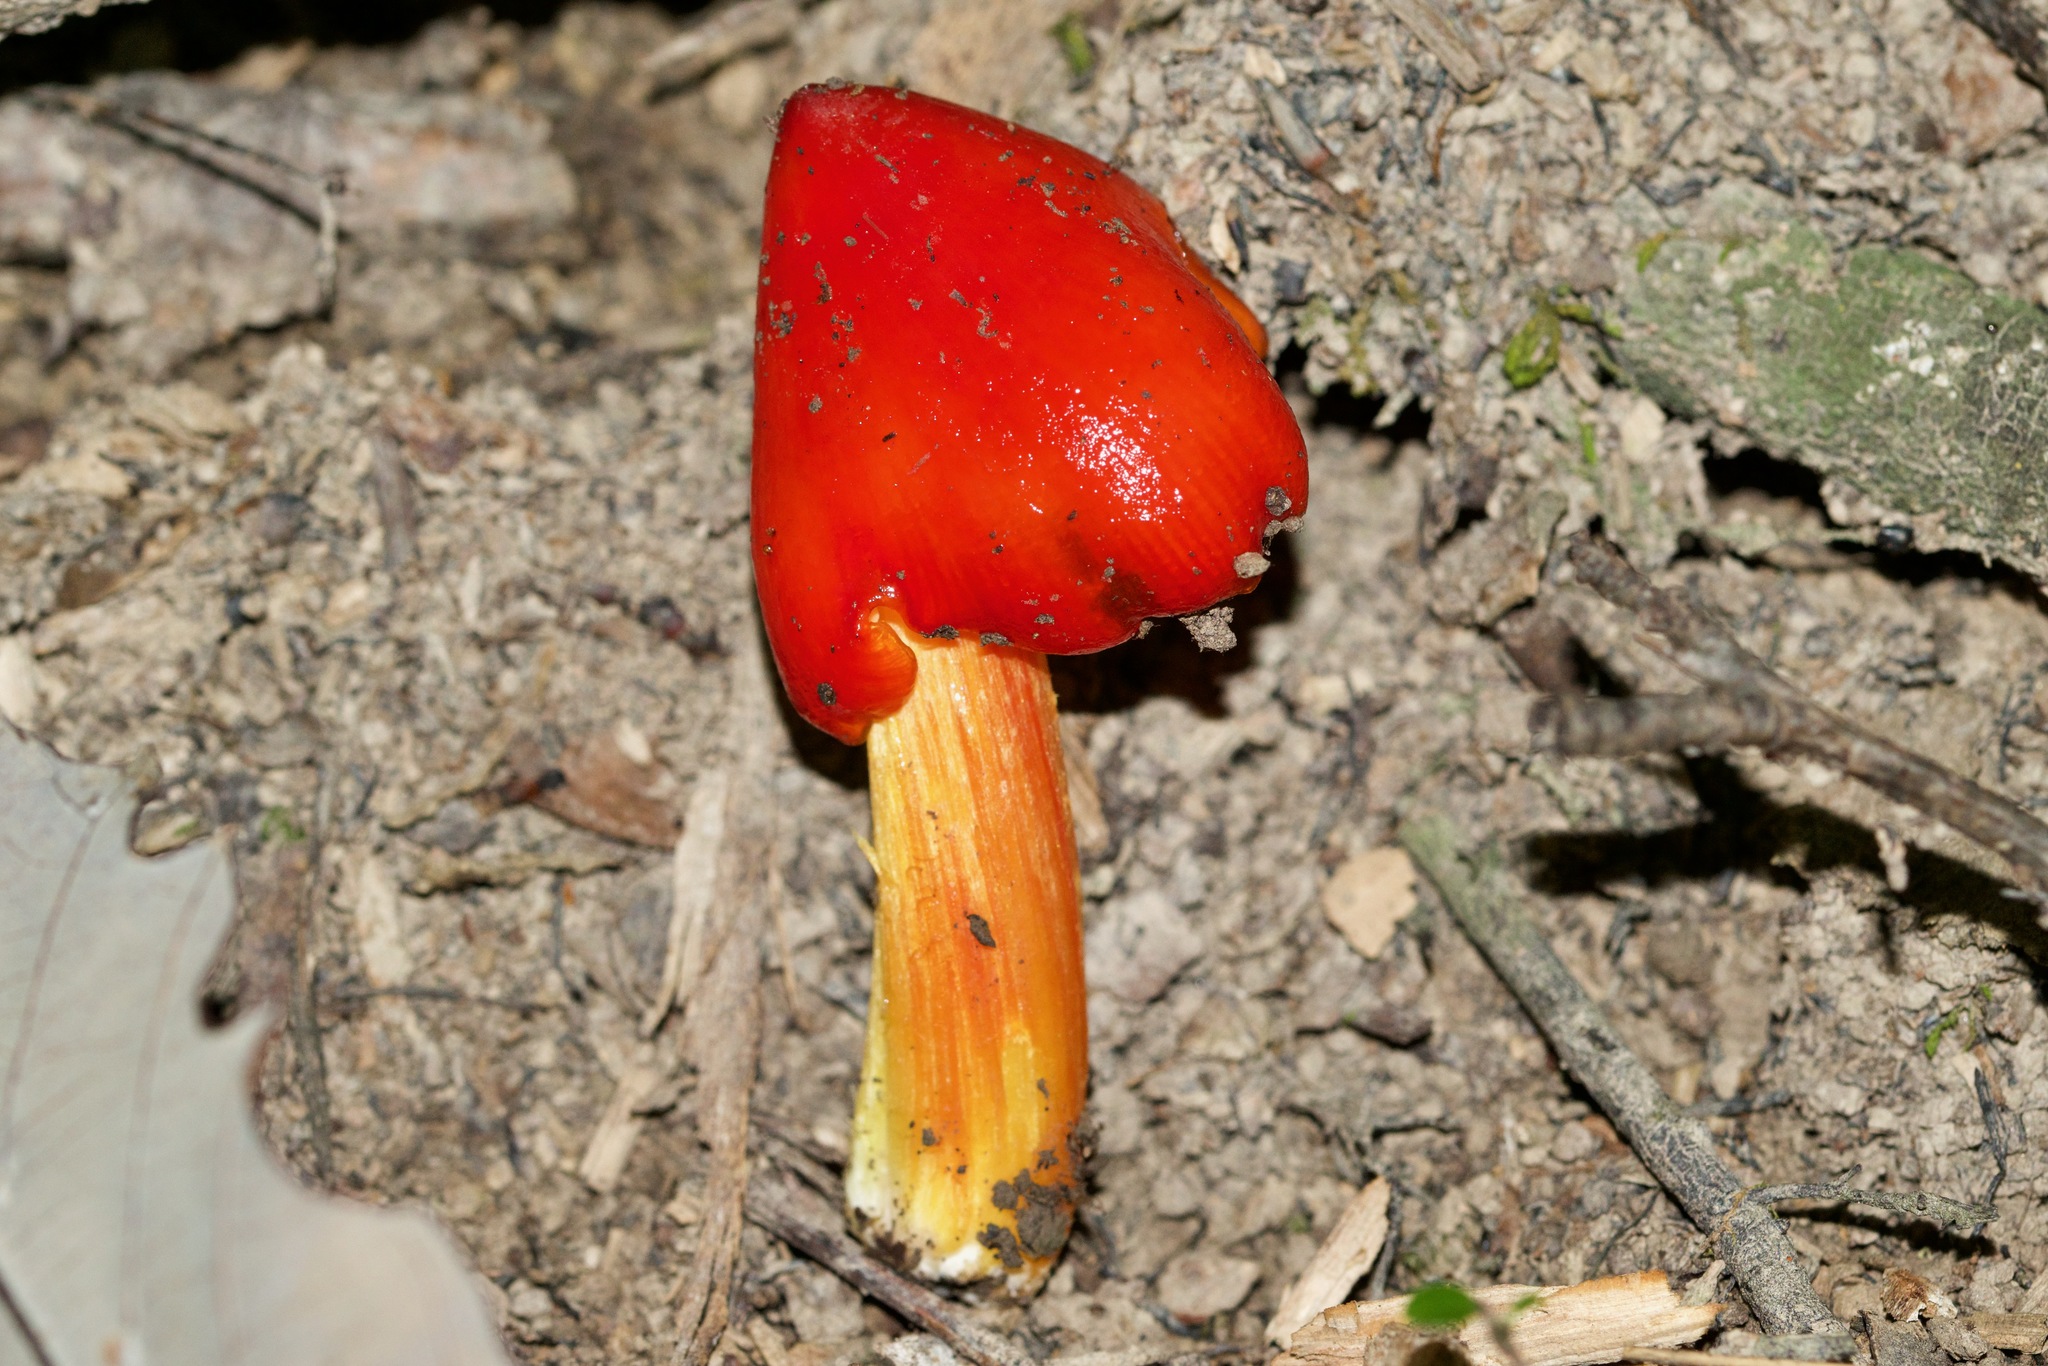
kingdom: Fungi
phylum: Basidiomycota
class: Agaricomycetes
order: Agaricales
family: Hygrophoraceae
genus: Hygrocybe
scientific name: Hygrocybe cuspidata
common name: Candy apple waxy cap
